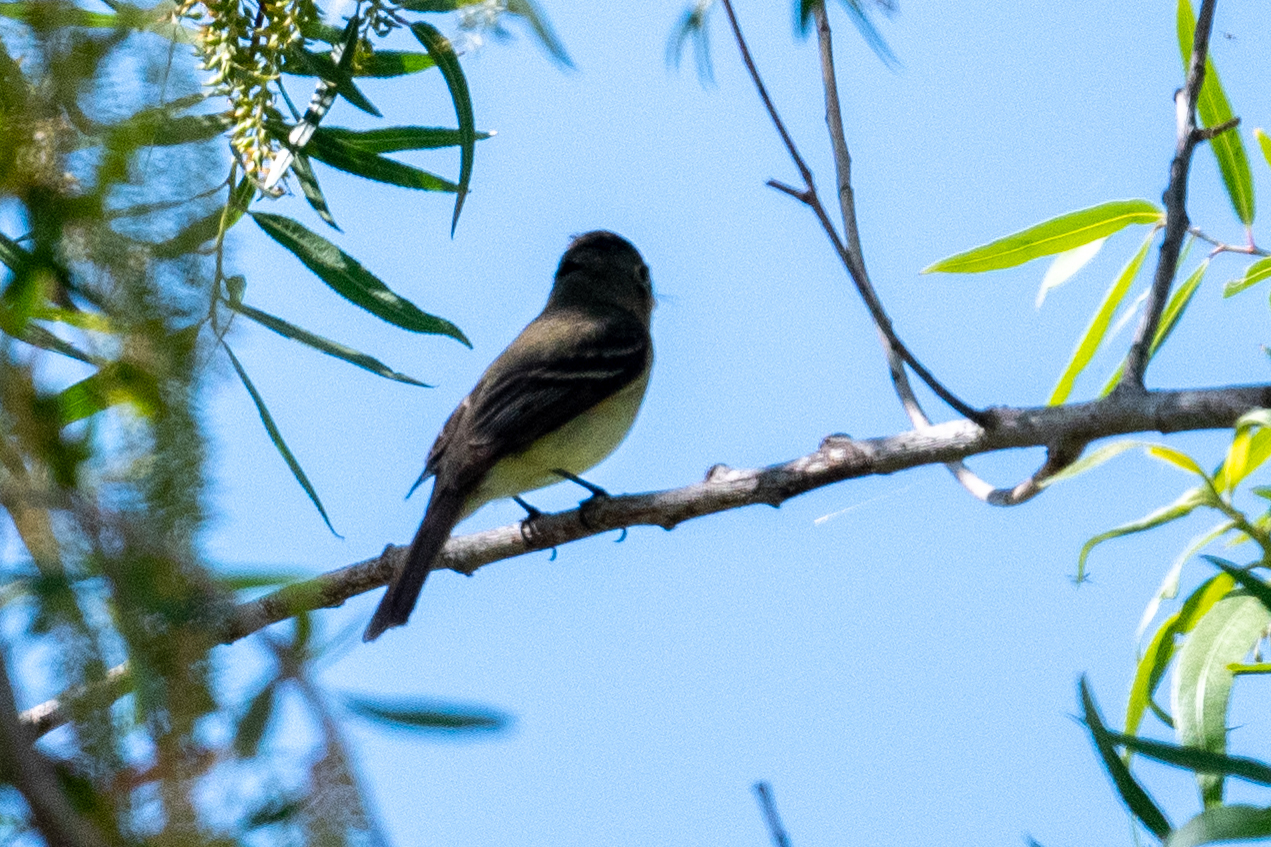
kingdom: Animalia
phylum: Chordata
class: Aves
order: Passeriformes
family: Tyrannidae
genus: Empidonax
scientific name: Empidonax difficilis
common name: Pacific-slope flycatcher
